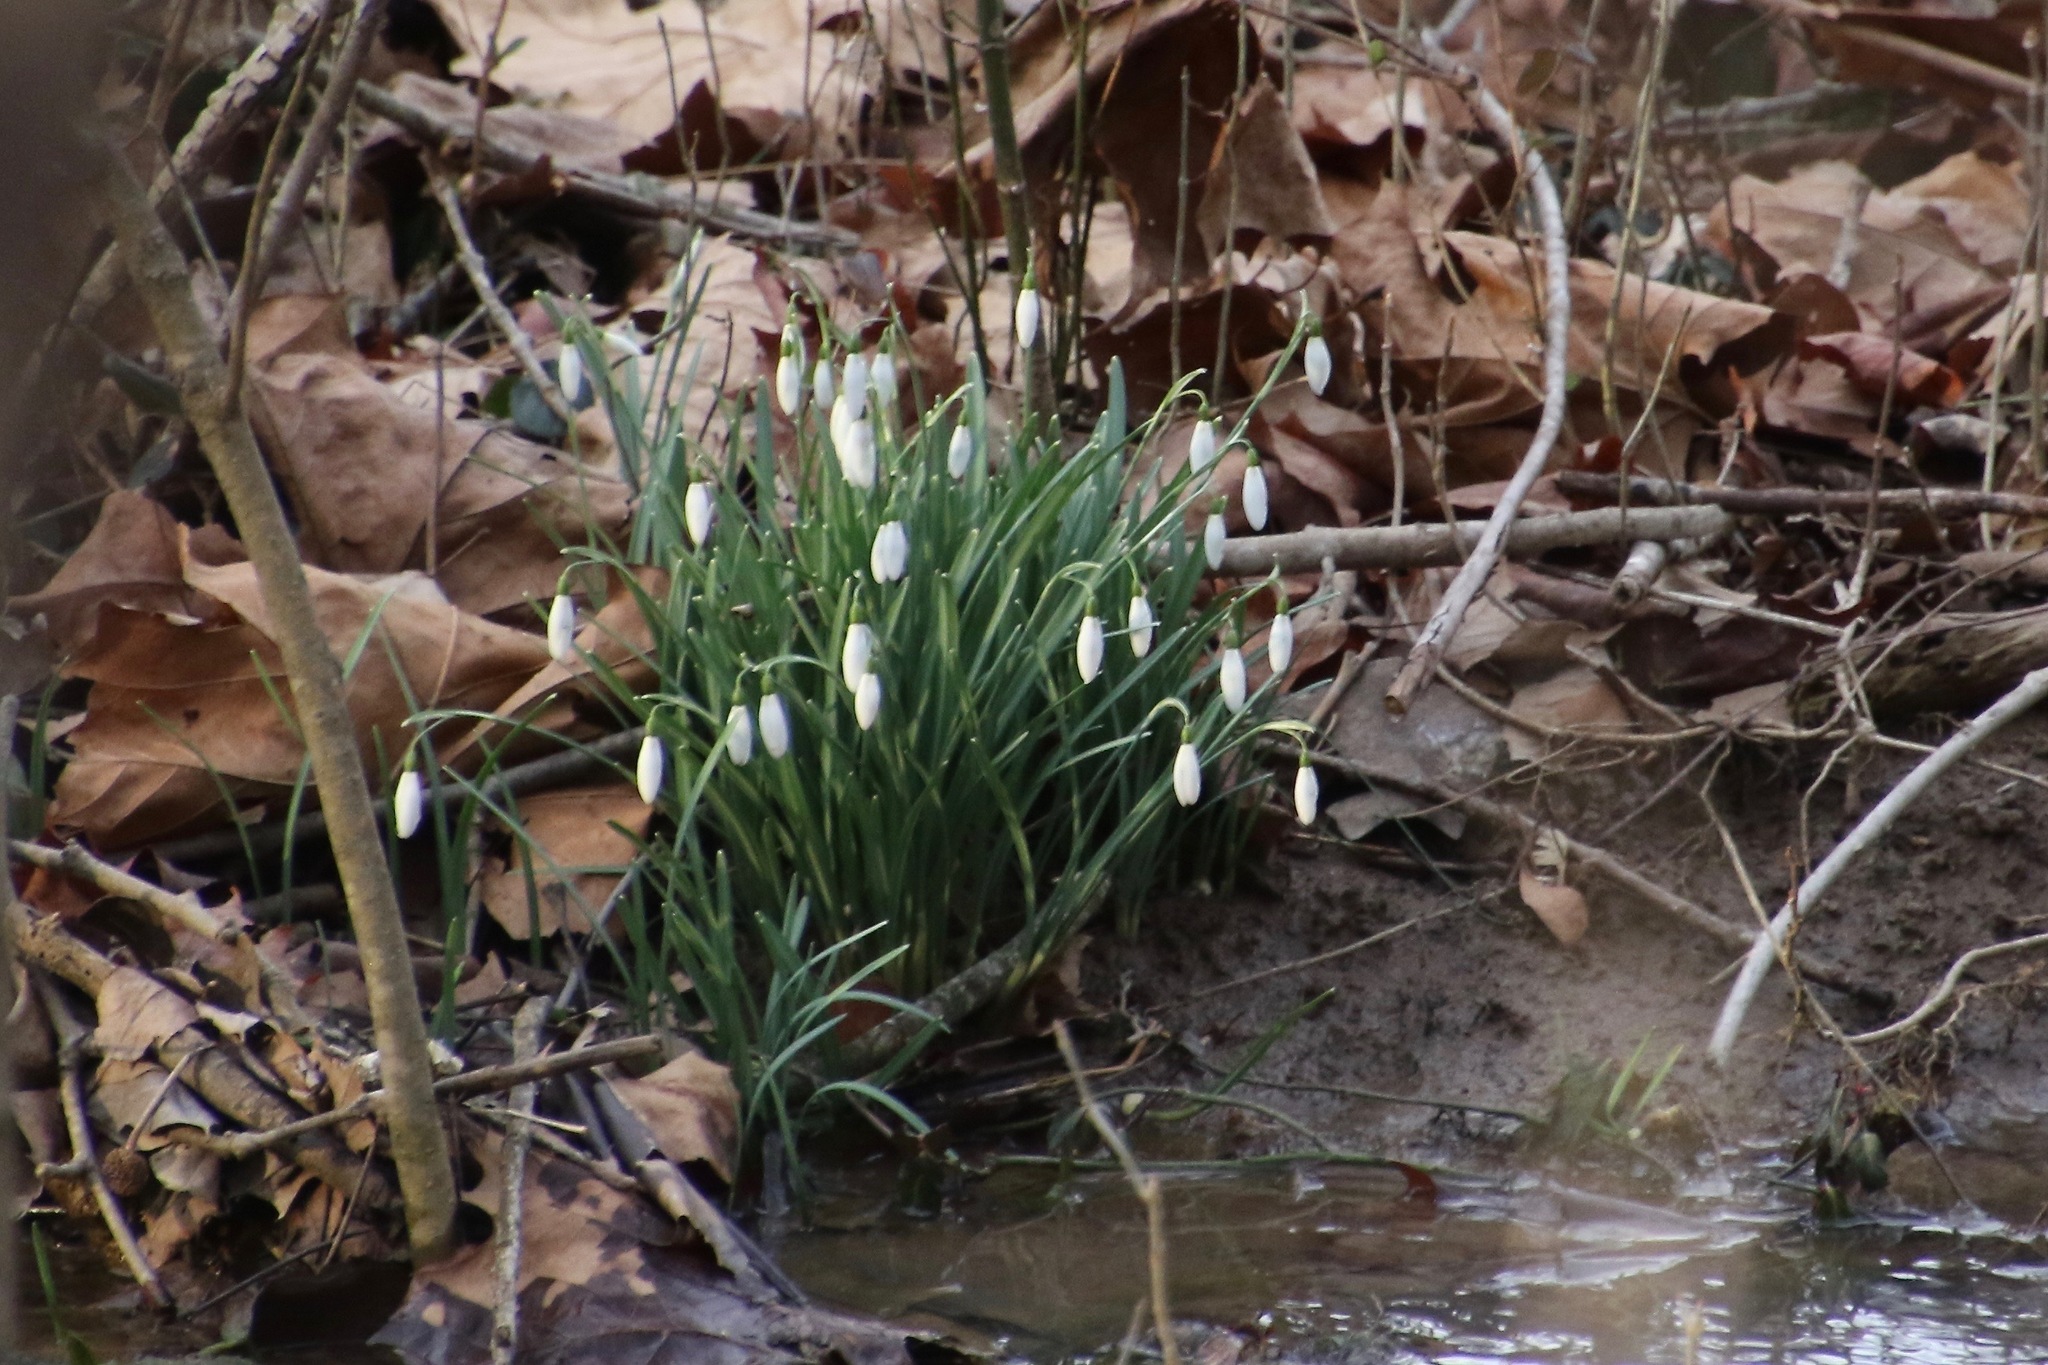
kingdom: Plantae
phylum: Tracheophyta
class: Liliopsida
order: Asparagales
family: Amaryllidaceae
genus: Galanthus
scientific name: Galanthus nivalis
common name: Snowdrop
